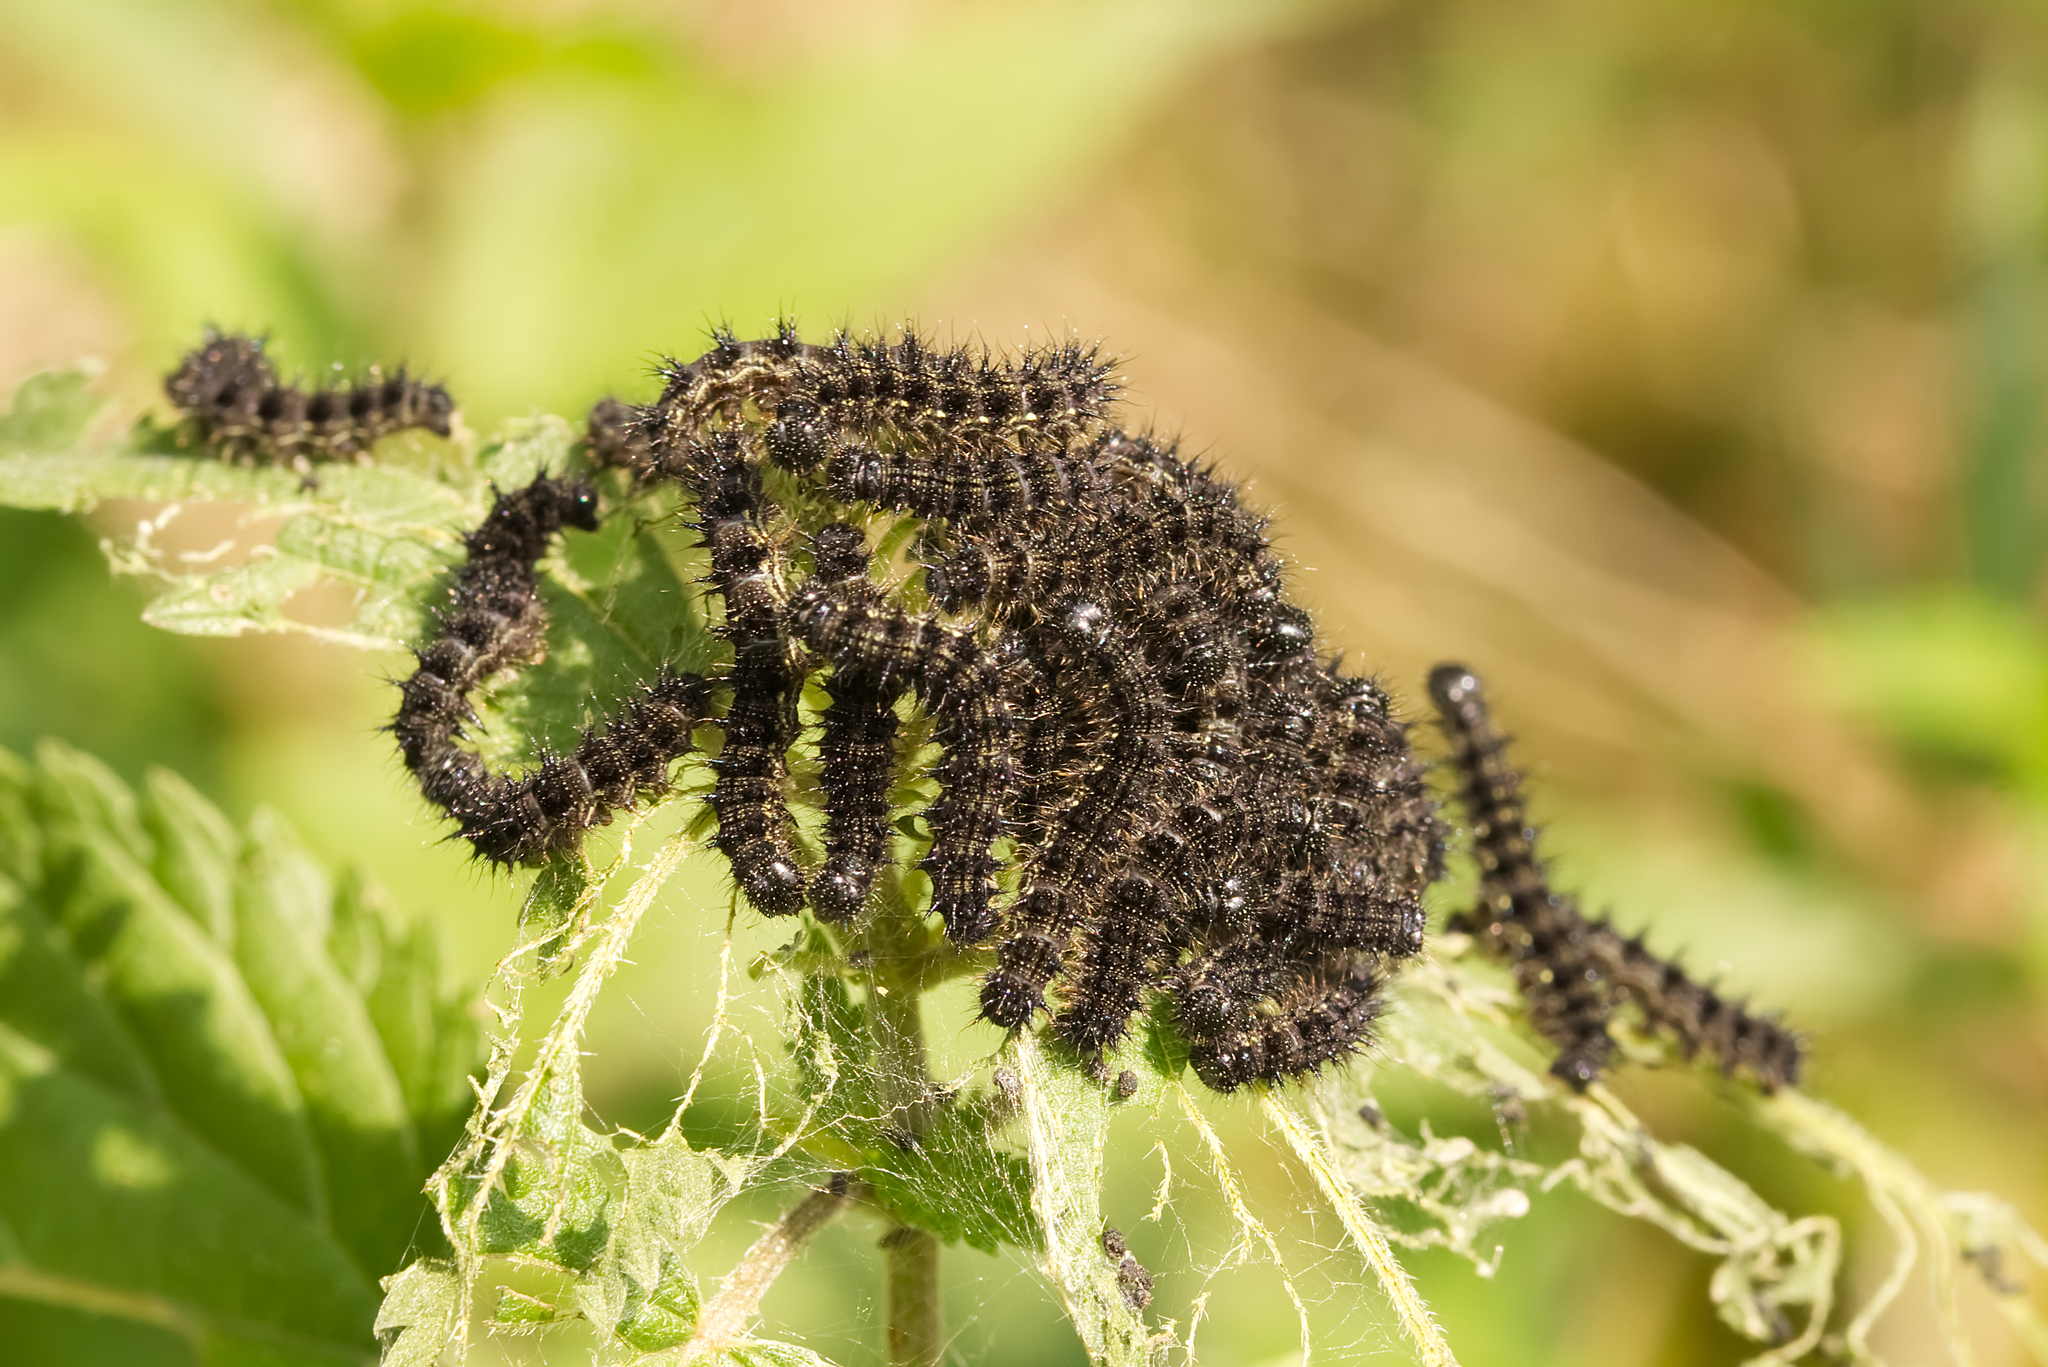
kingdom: Animalia
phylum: Arthropoda
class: Insecta
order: Lepidoptera
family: Nymphalidae
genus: Aglais
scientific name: Aglais urticae
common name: Small tortoiseshell
